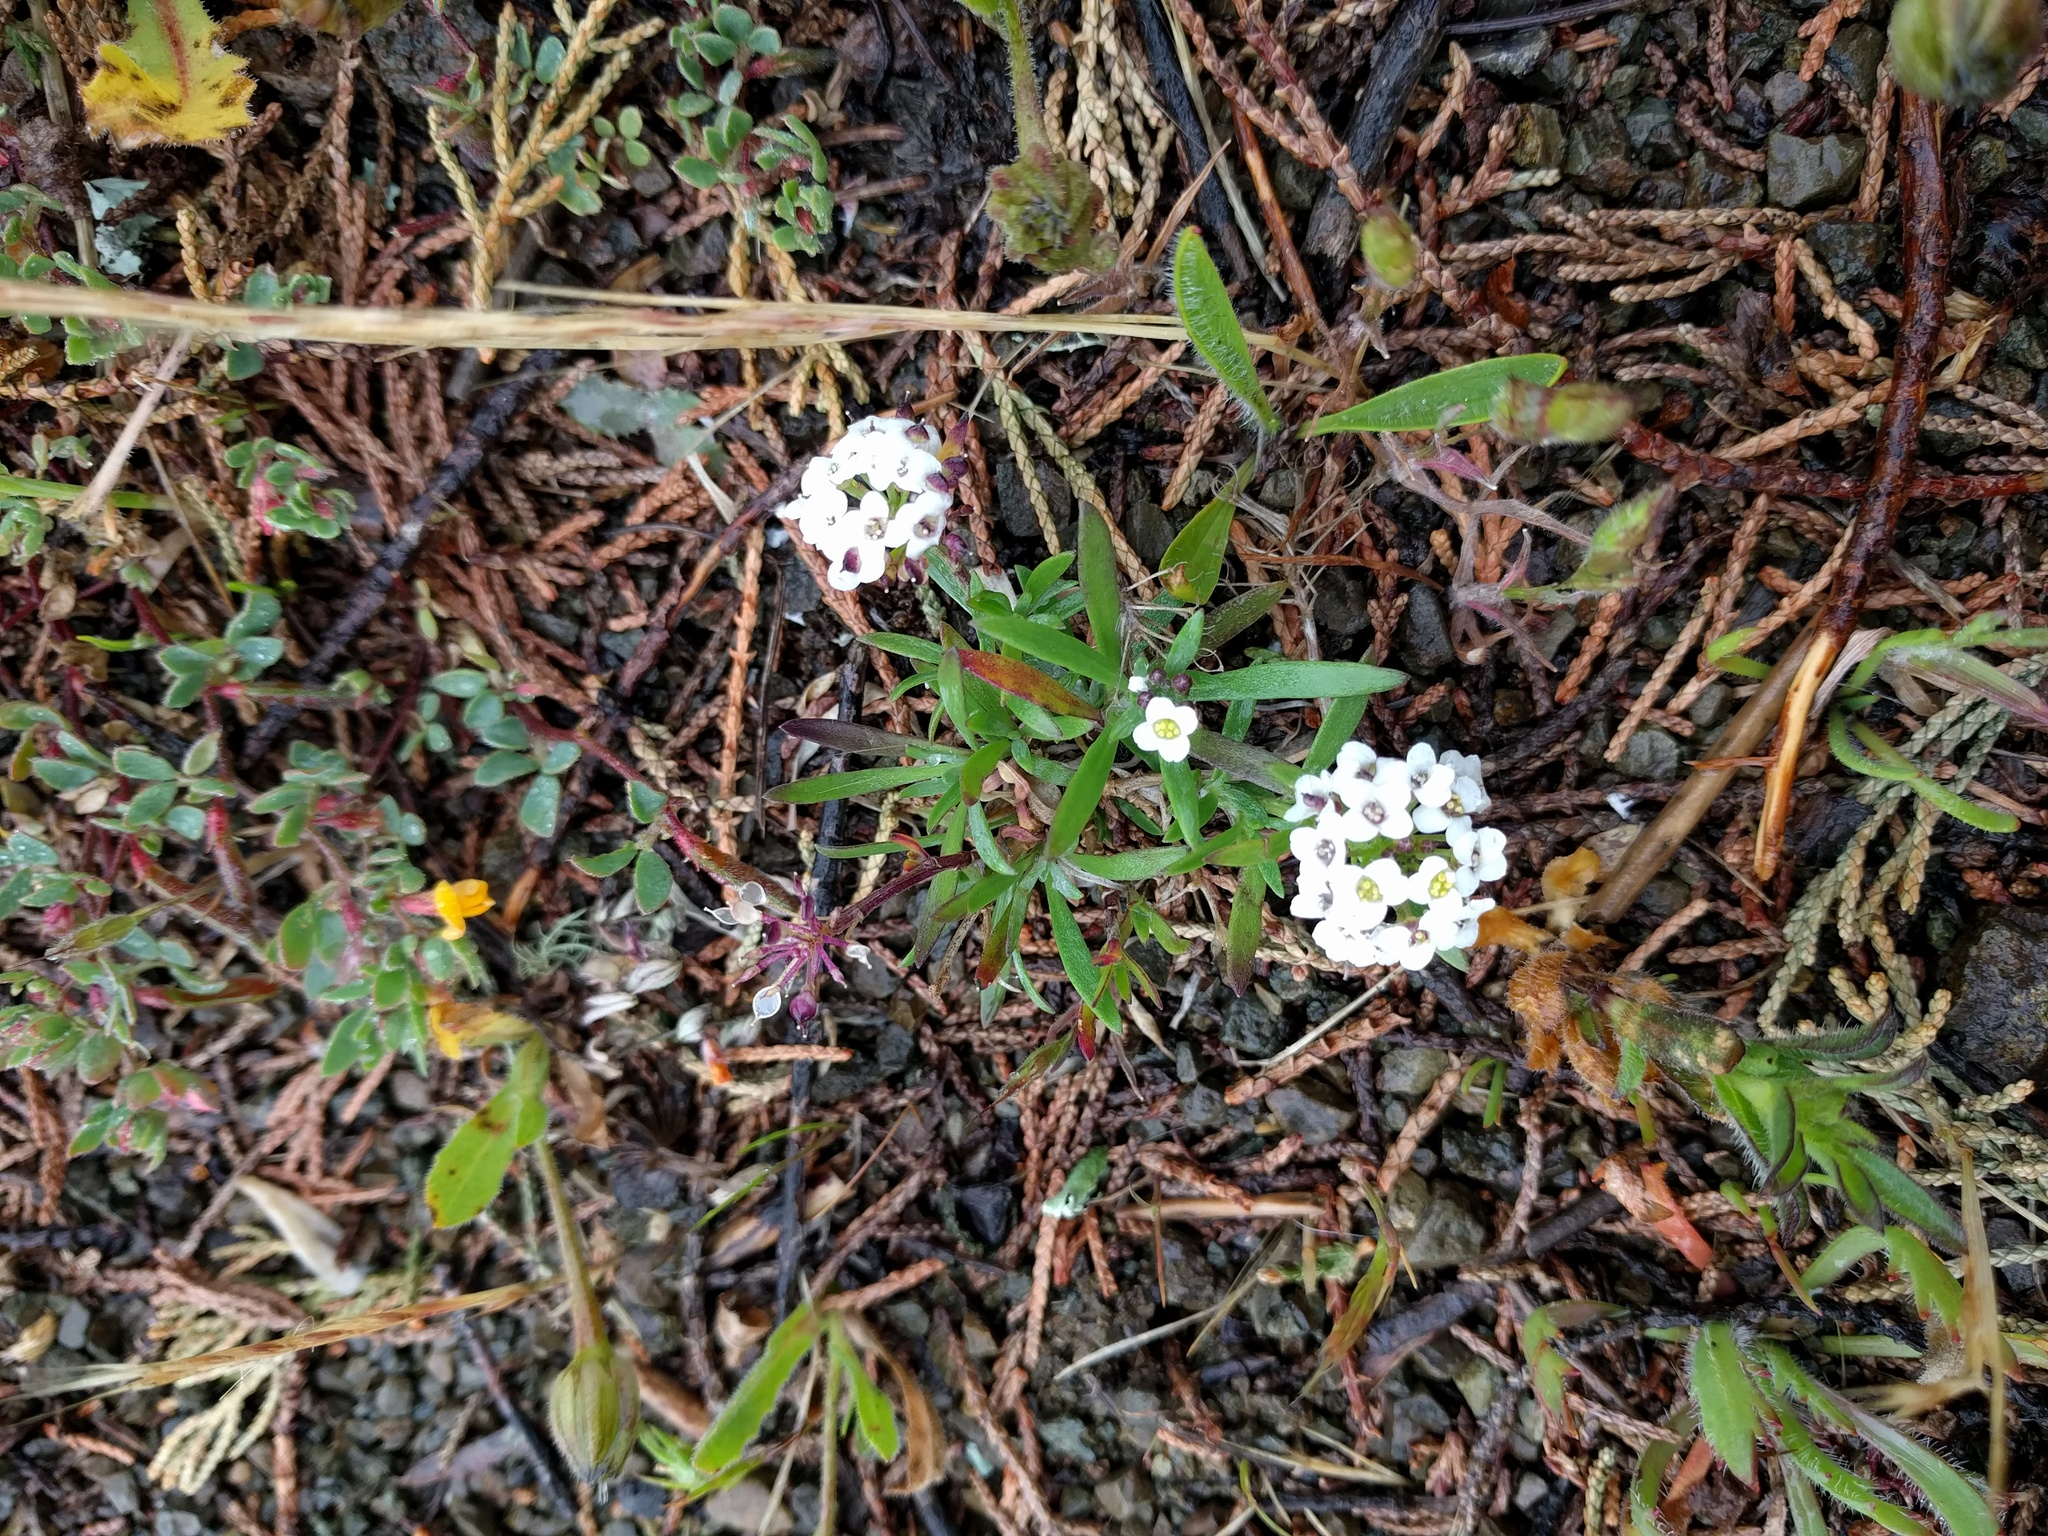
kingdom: Plantae
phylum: Tracheophyta
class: Magnoliopsida
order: Brassicales
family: Brassicaceae
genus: Lobularia
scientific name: Lobularia maritima
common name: Sweet alison
